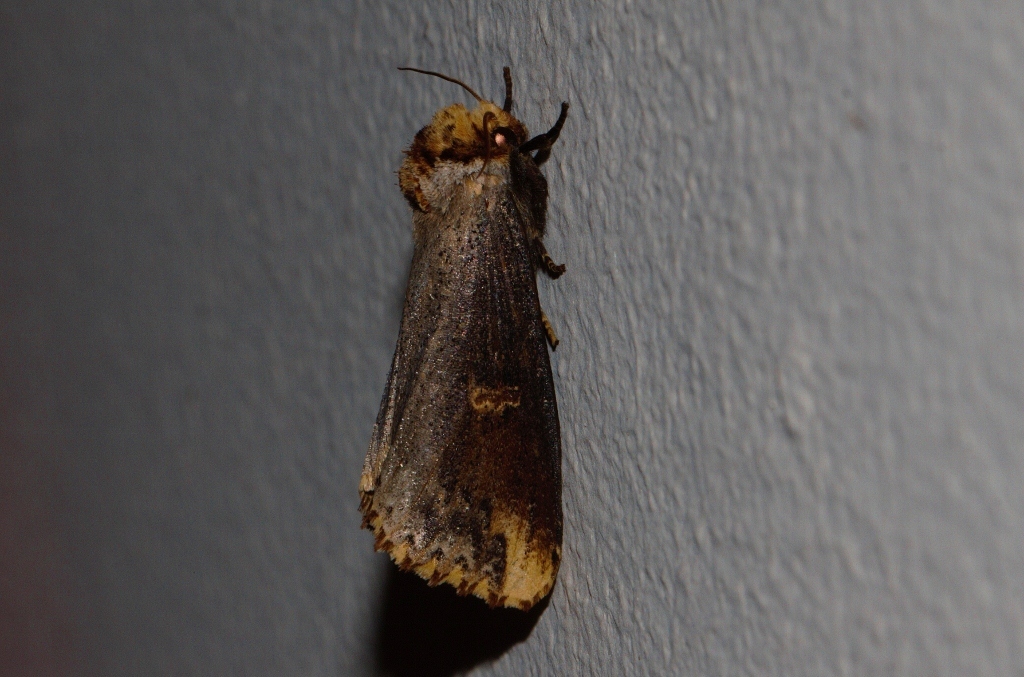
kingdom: Animalia
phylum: Arthropoda
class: Insecta
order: Lepidoptera
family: Notodontidae
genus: Phalera
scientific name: Phalera lydenburgi
